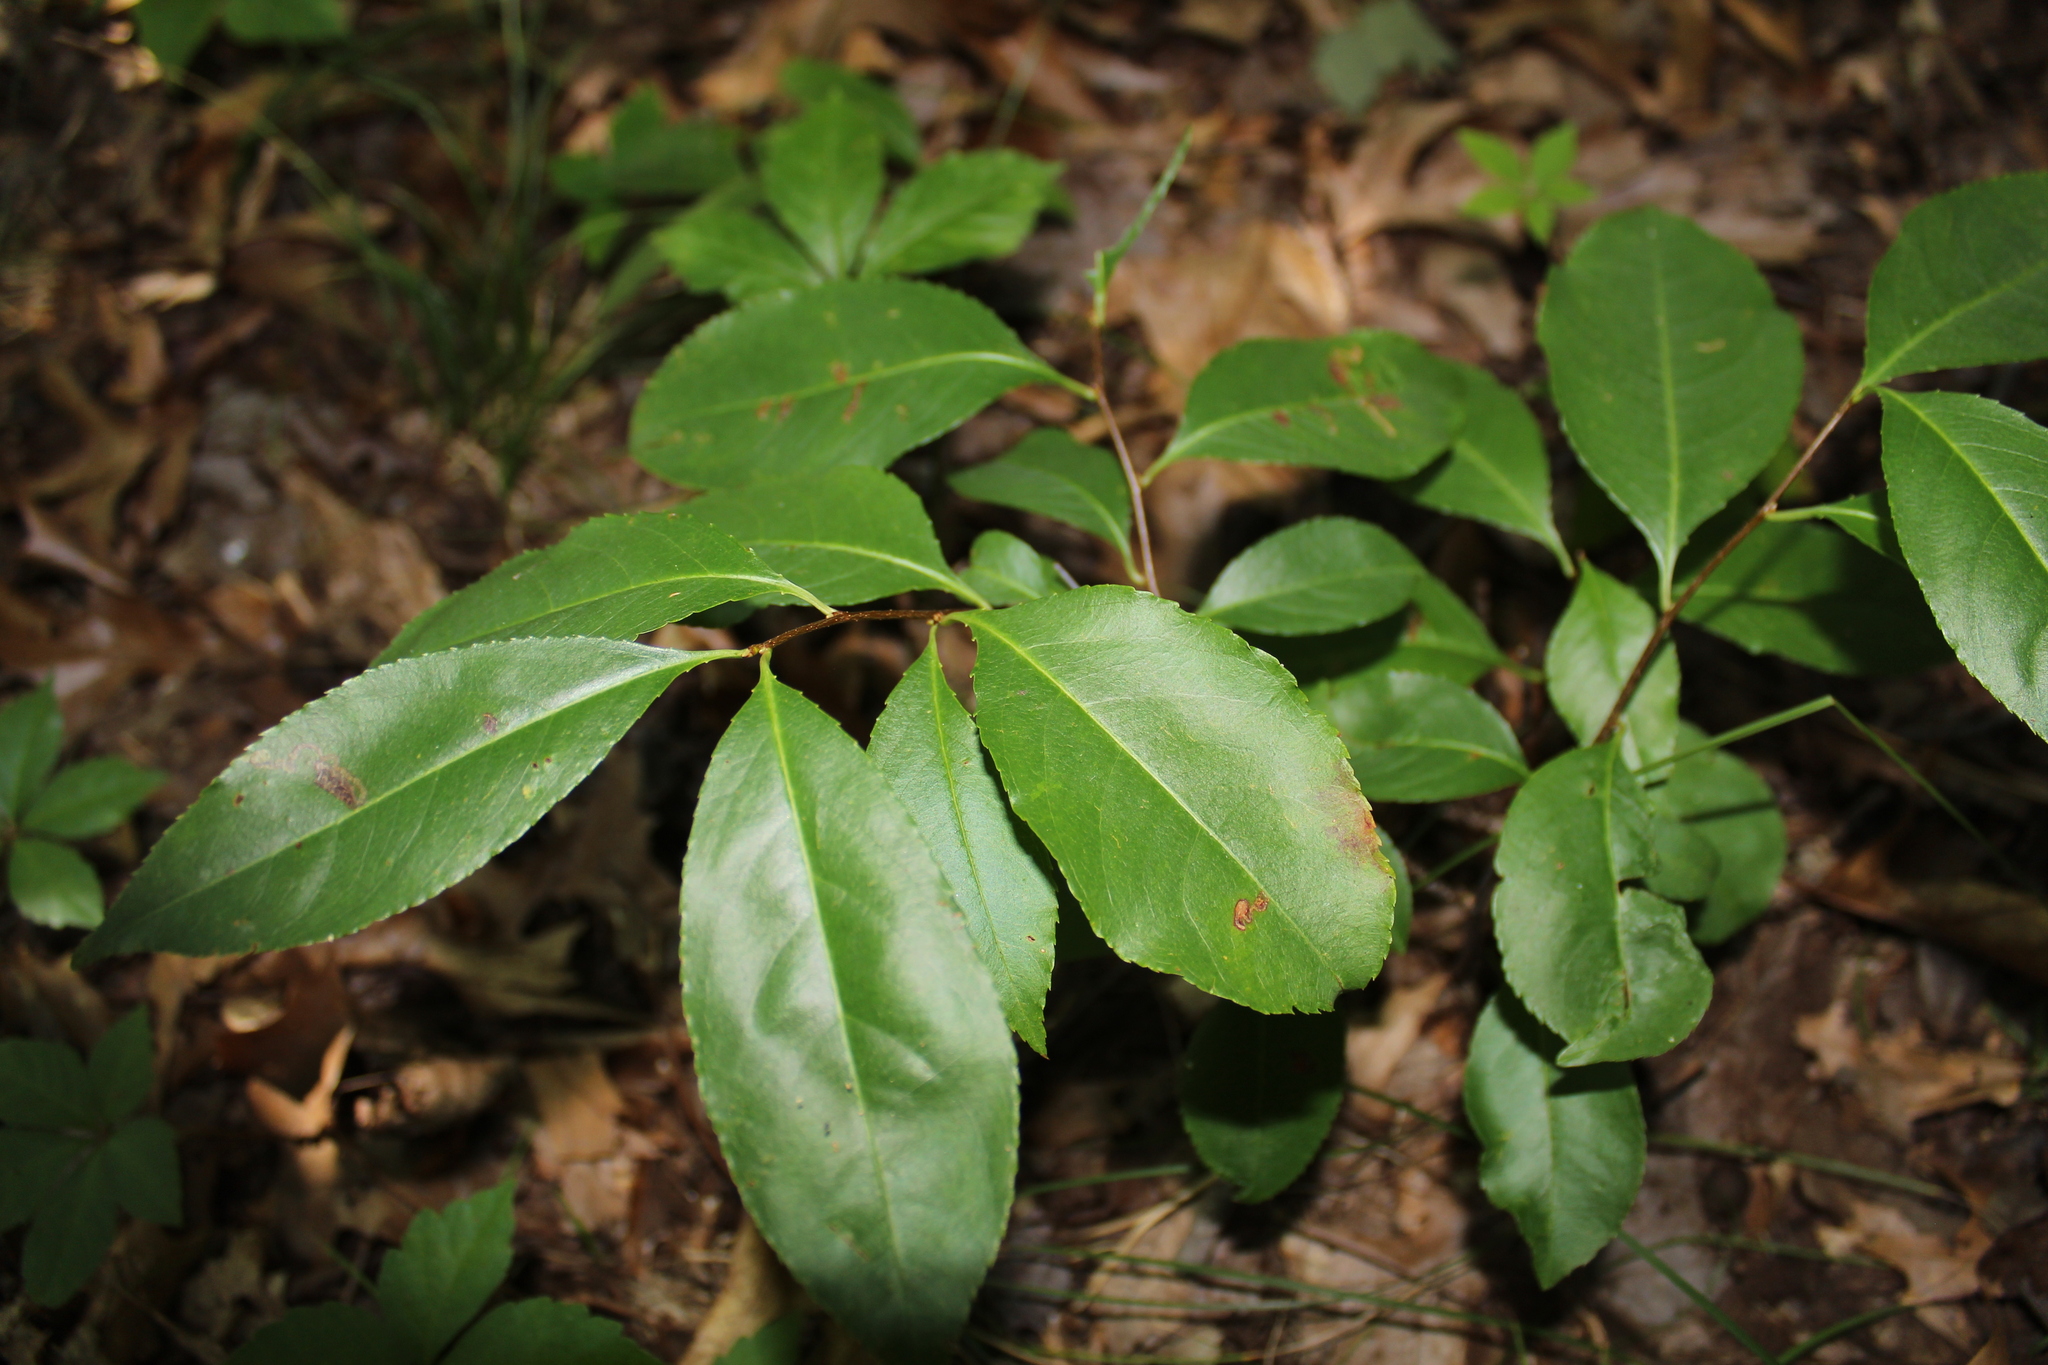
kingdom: Plantae
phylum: Tracheophyta
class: Magnoliopsida
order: Rosales
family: Rosaceae
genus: Prunus
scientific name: Prunus serotina
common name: Black cherry
